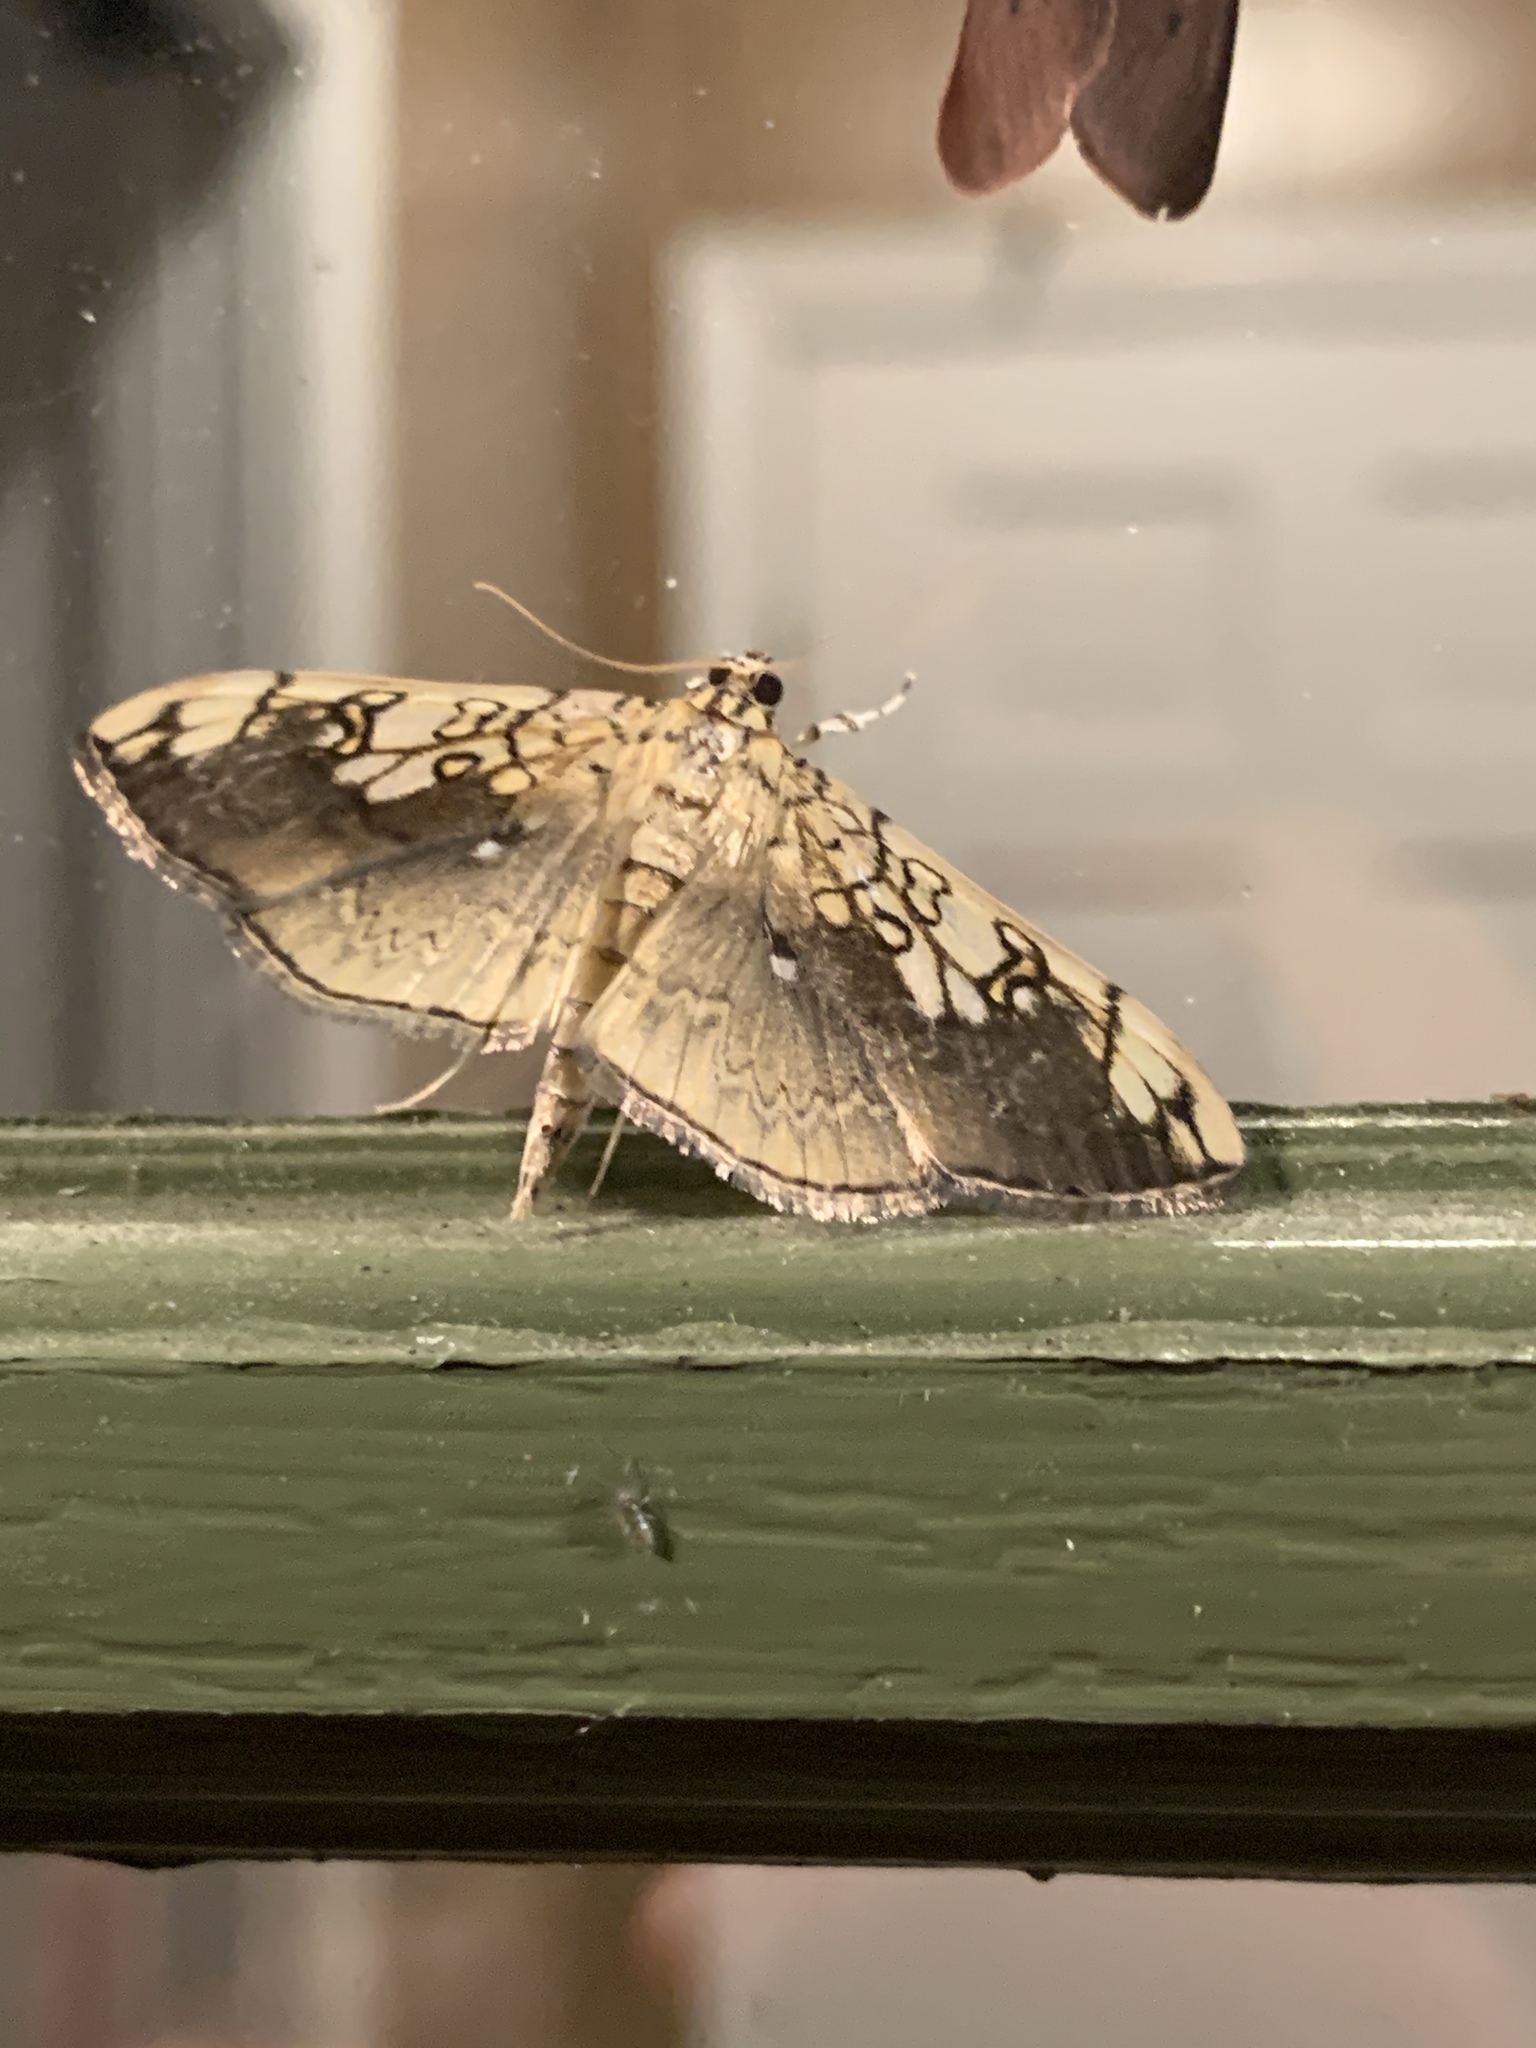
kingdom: Animalia
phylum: Arthropoda
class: Insecta
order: Lepidoptera
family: Crambidae
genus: Pantographa
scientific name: Pantographa limata
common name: Basswood leafroller moth
